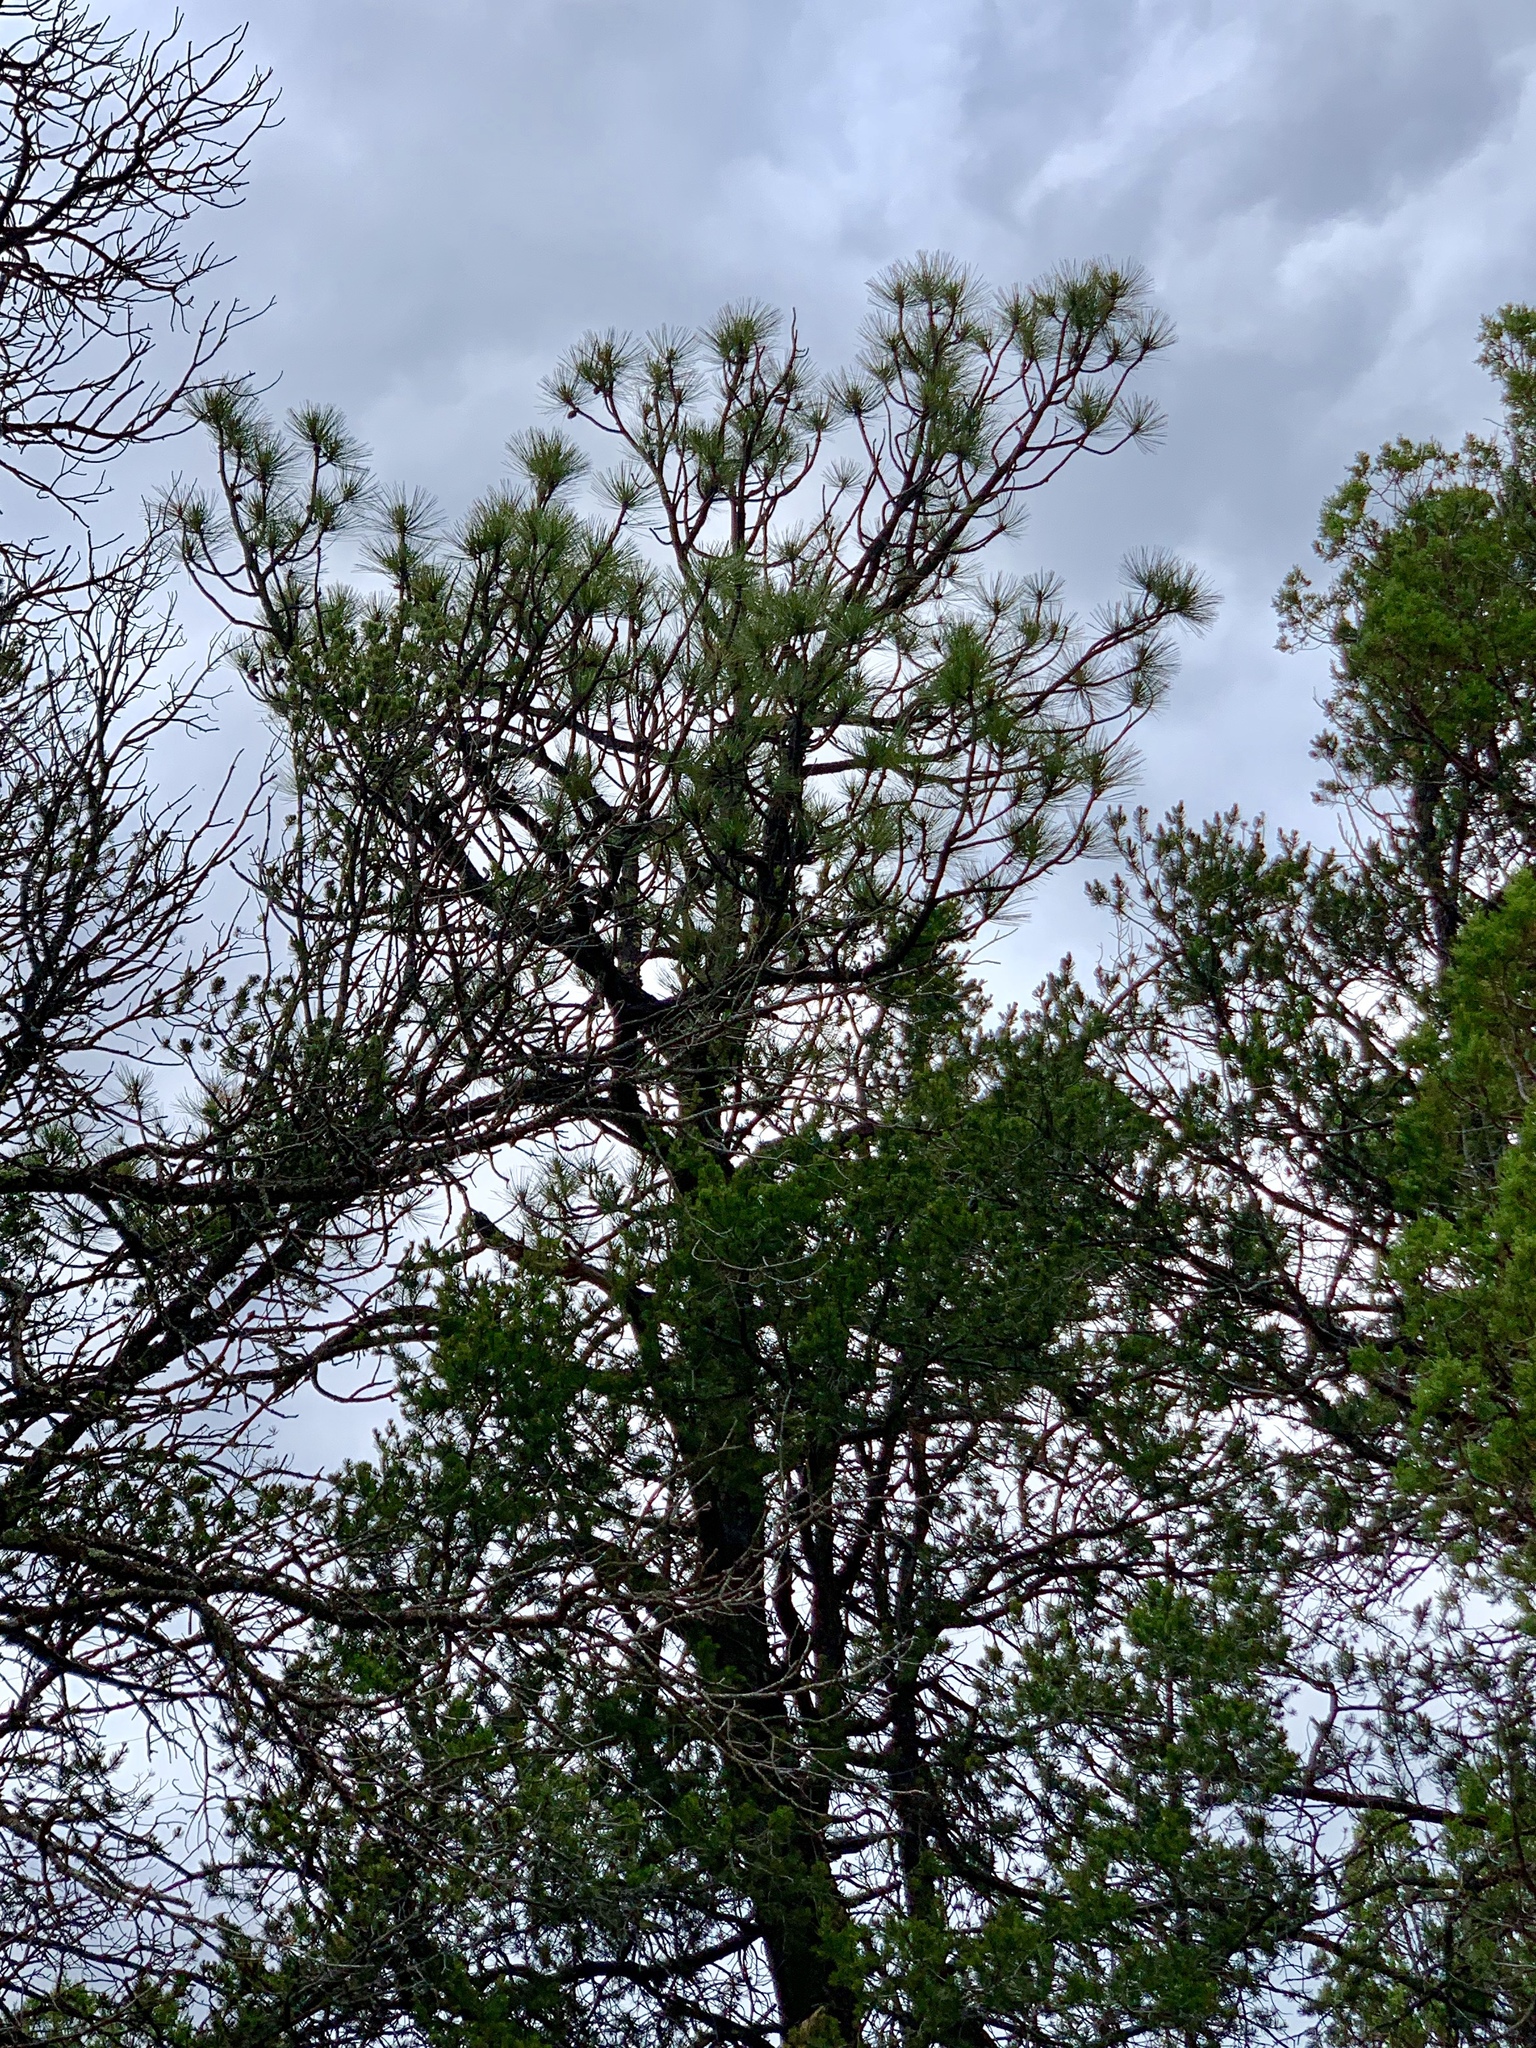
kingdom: Plantae
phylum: Tracheophyta
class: Pinopsida
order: Pinales
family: Pinaceae
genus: Pinus
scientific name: Pinus ponderosa
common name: Western yellow-pine
